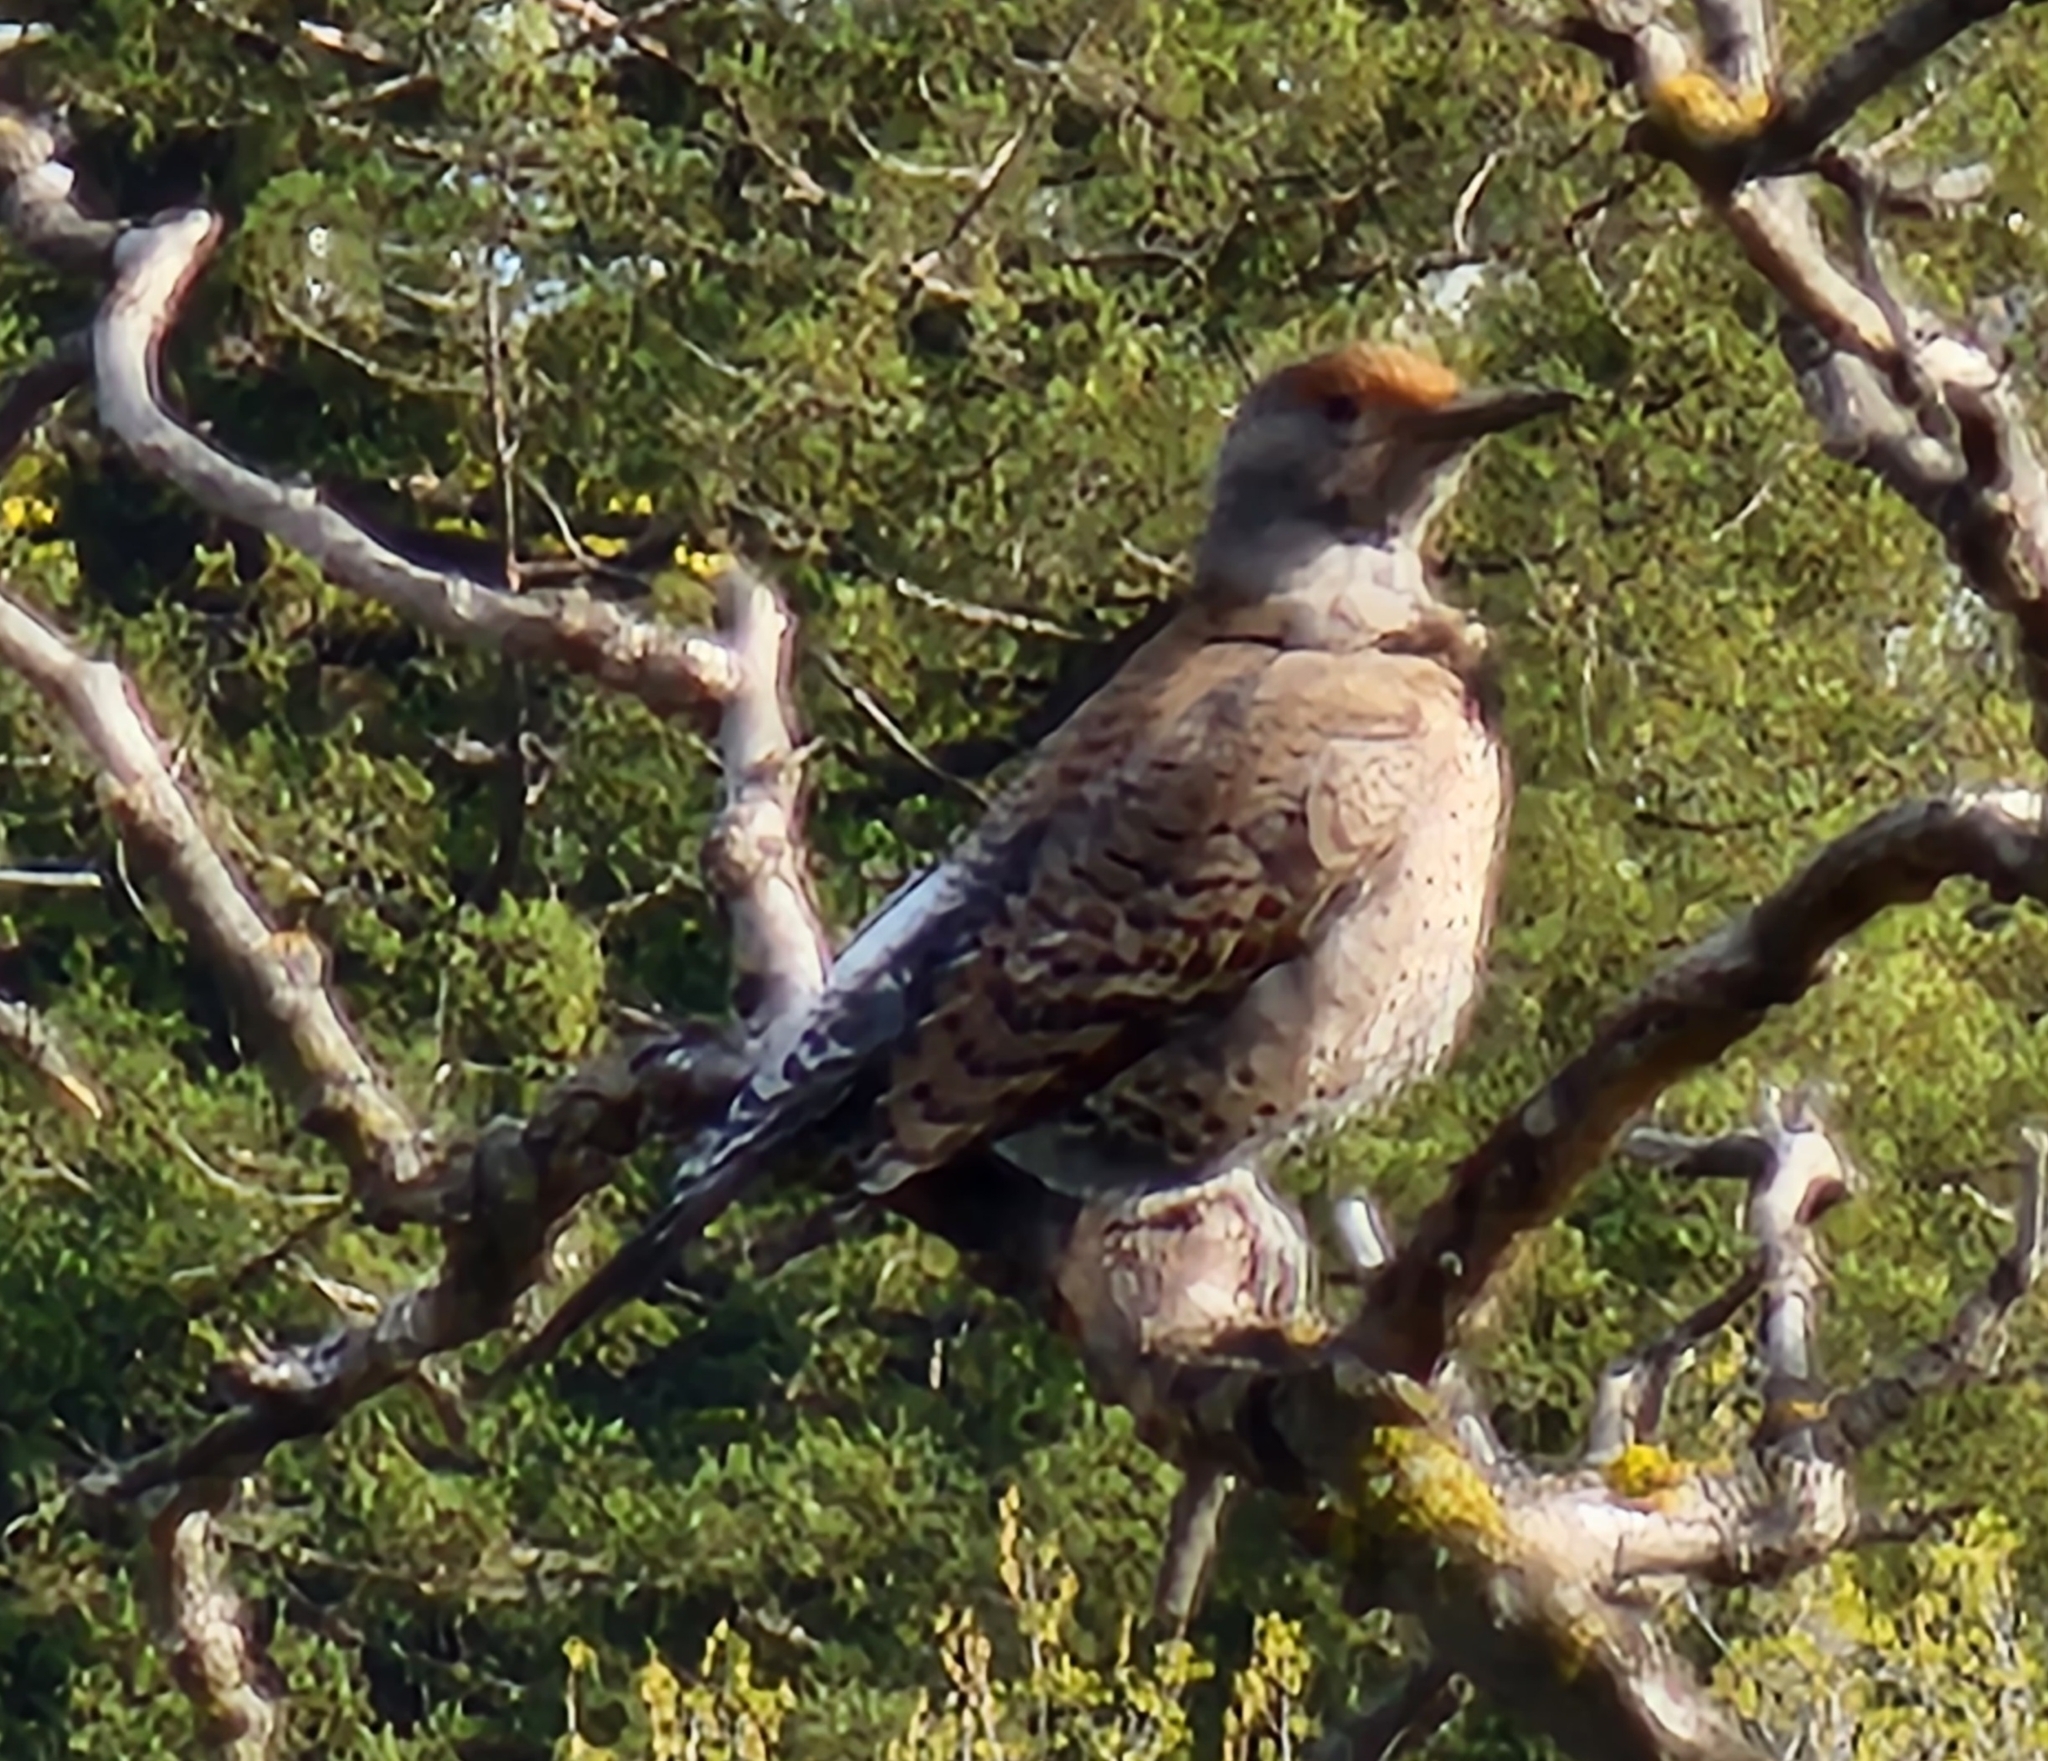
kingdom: Animalia
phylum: Chordata
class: Aves
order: Piciformes
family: Picidae
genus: Colaptes
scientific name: Colaptes auratus
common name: Northern flicker
